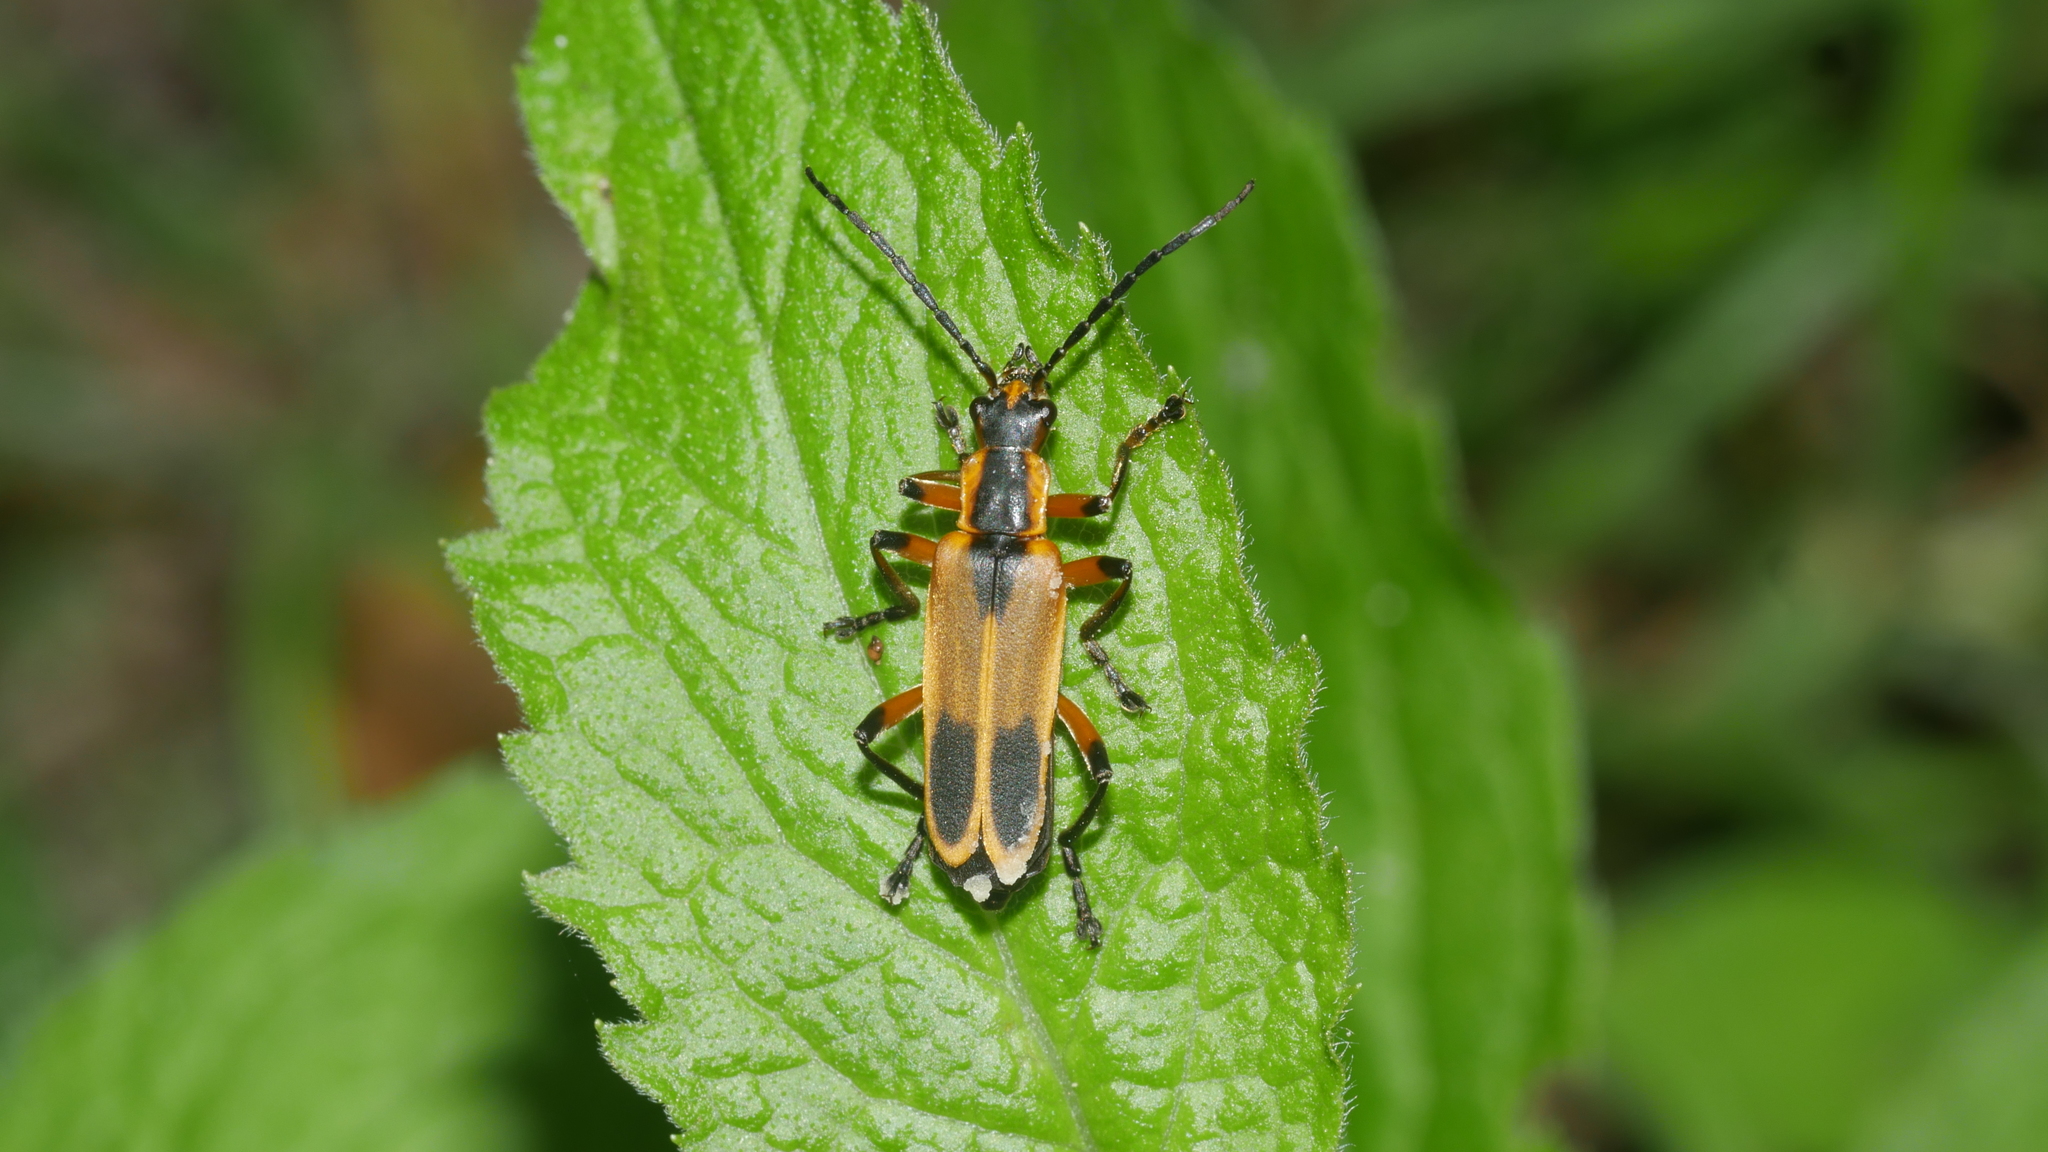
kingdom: Animalia
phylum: Arthropoda
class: Insecta
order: Coleoptera
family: Cantharidae
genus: Chauliognathus
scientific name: Chauliognathus marginatus
